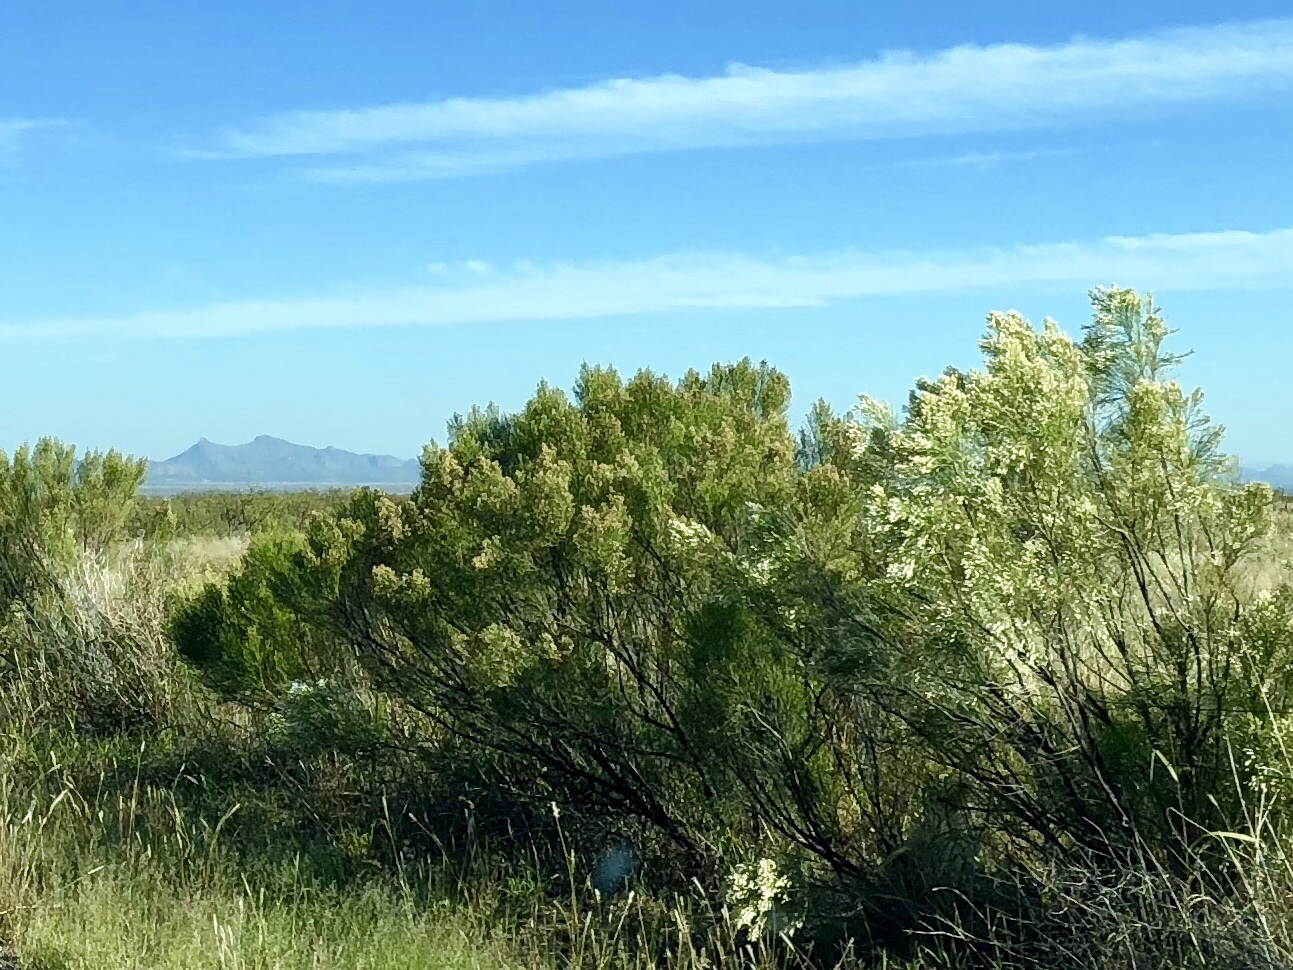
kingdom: Plantae
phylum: Tracheophyta
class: Magnoliopsida
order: Asterales
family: Asteraceae
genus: Baccharis
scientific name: Baccharis sarothroides
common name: Desert-broom
